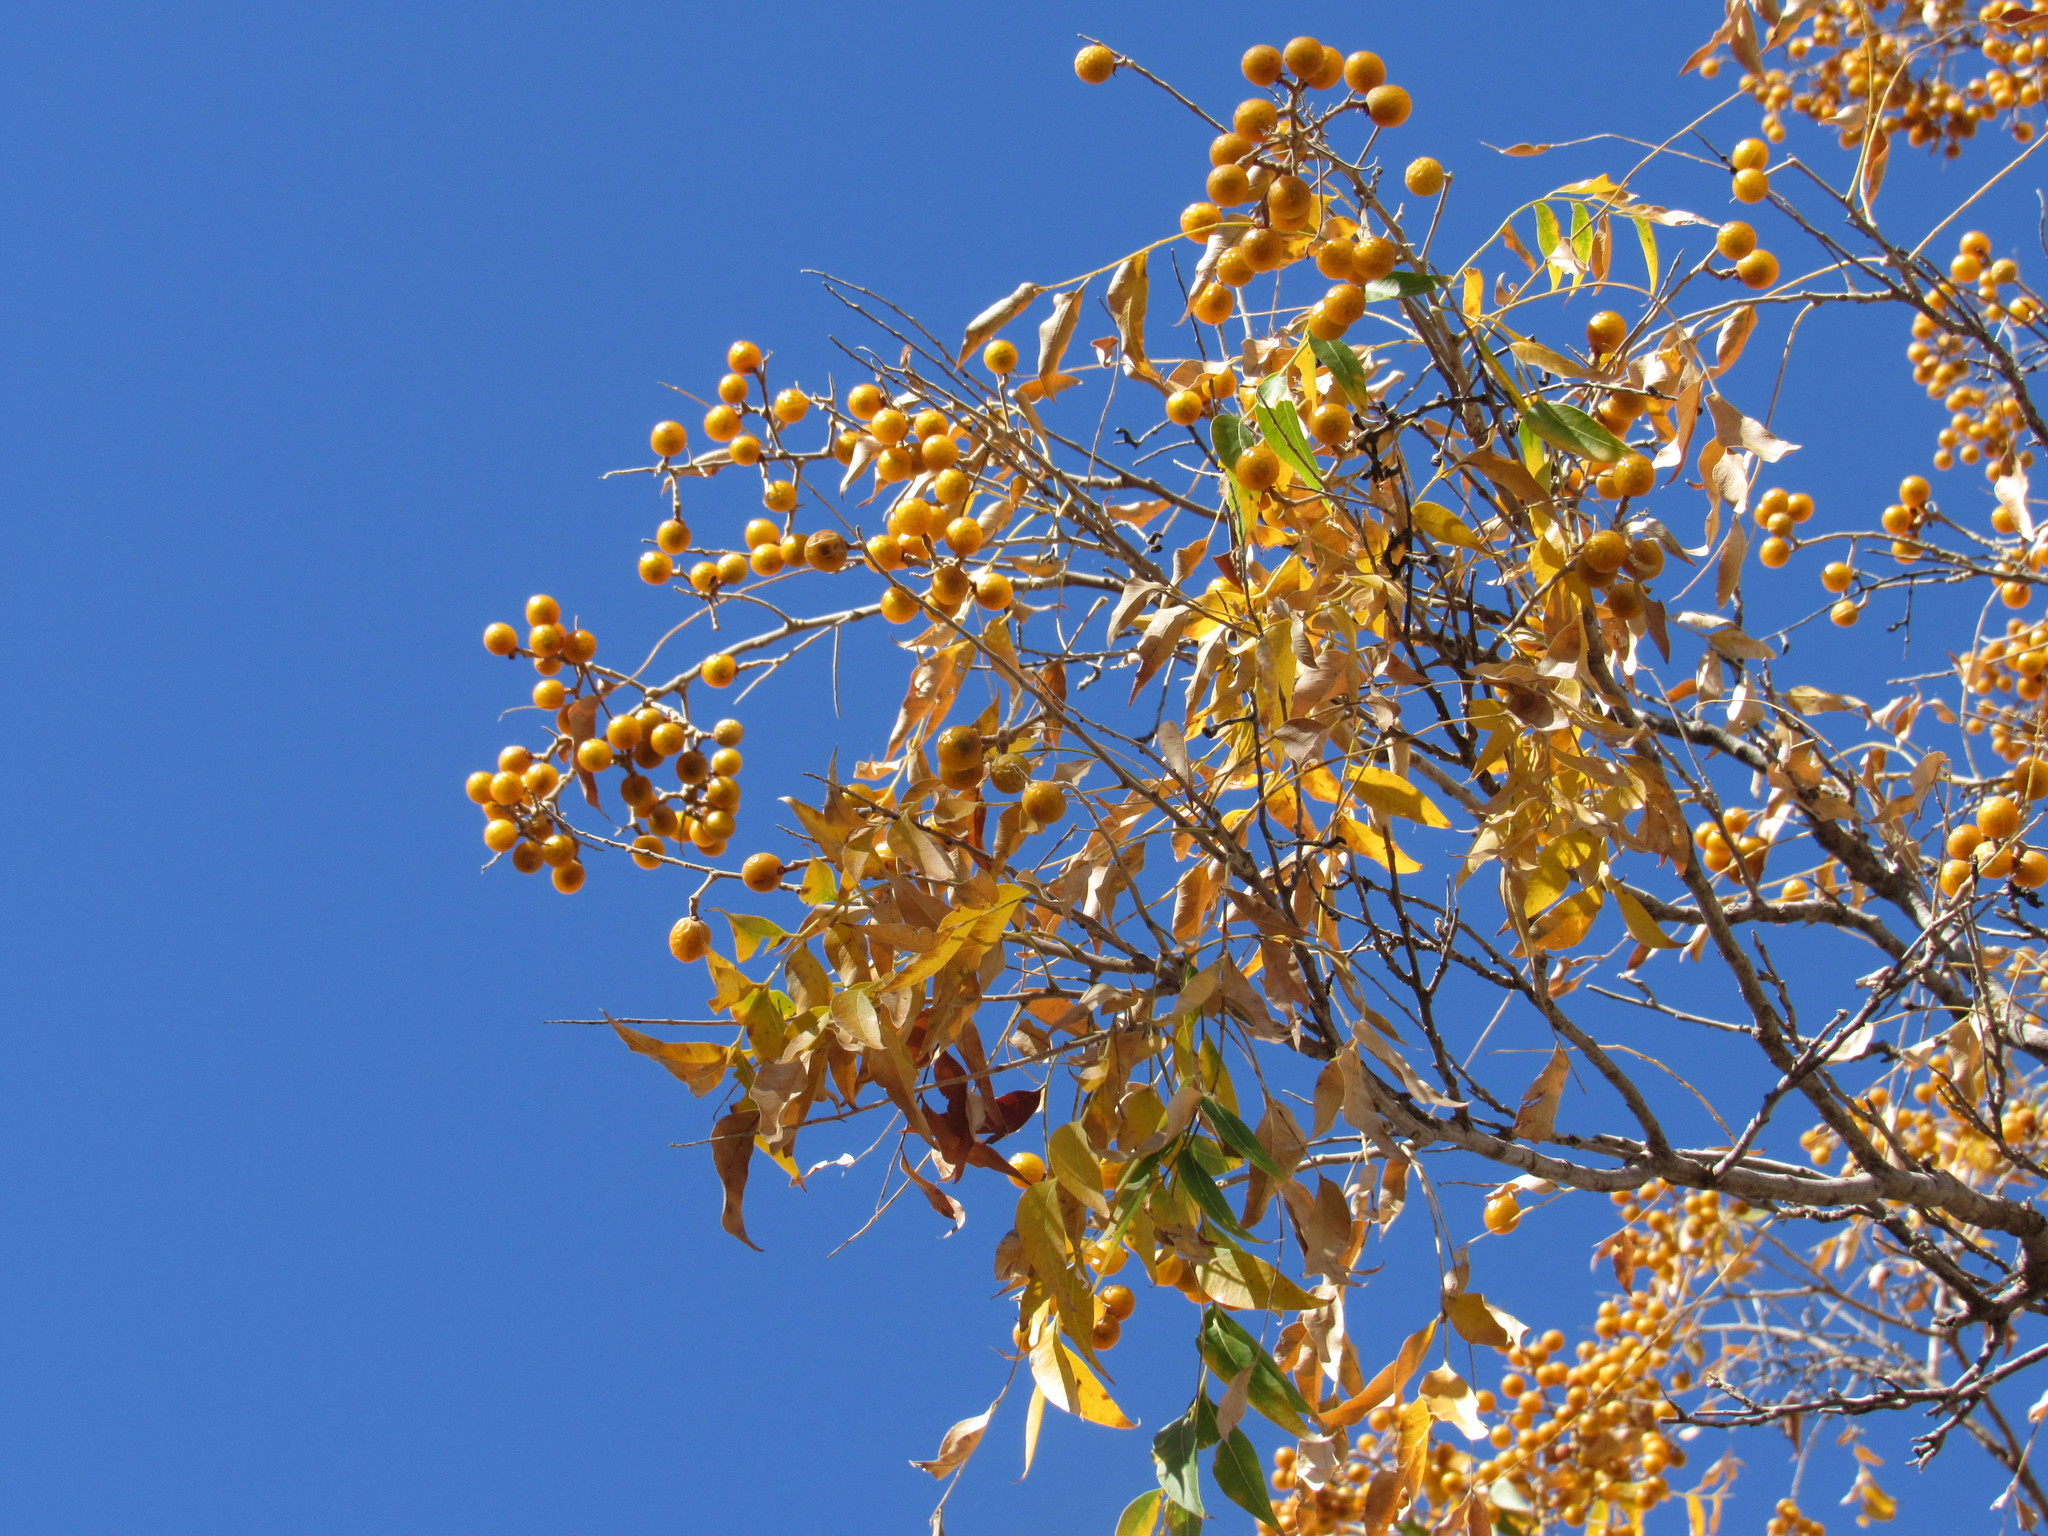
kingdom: Plantae
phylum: Tracheophyta
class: Magnoliopsida
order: Sapindales
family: Sapindaceae
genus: Sapindus
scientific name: Sapindus drummondii
